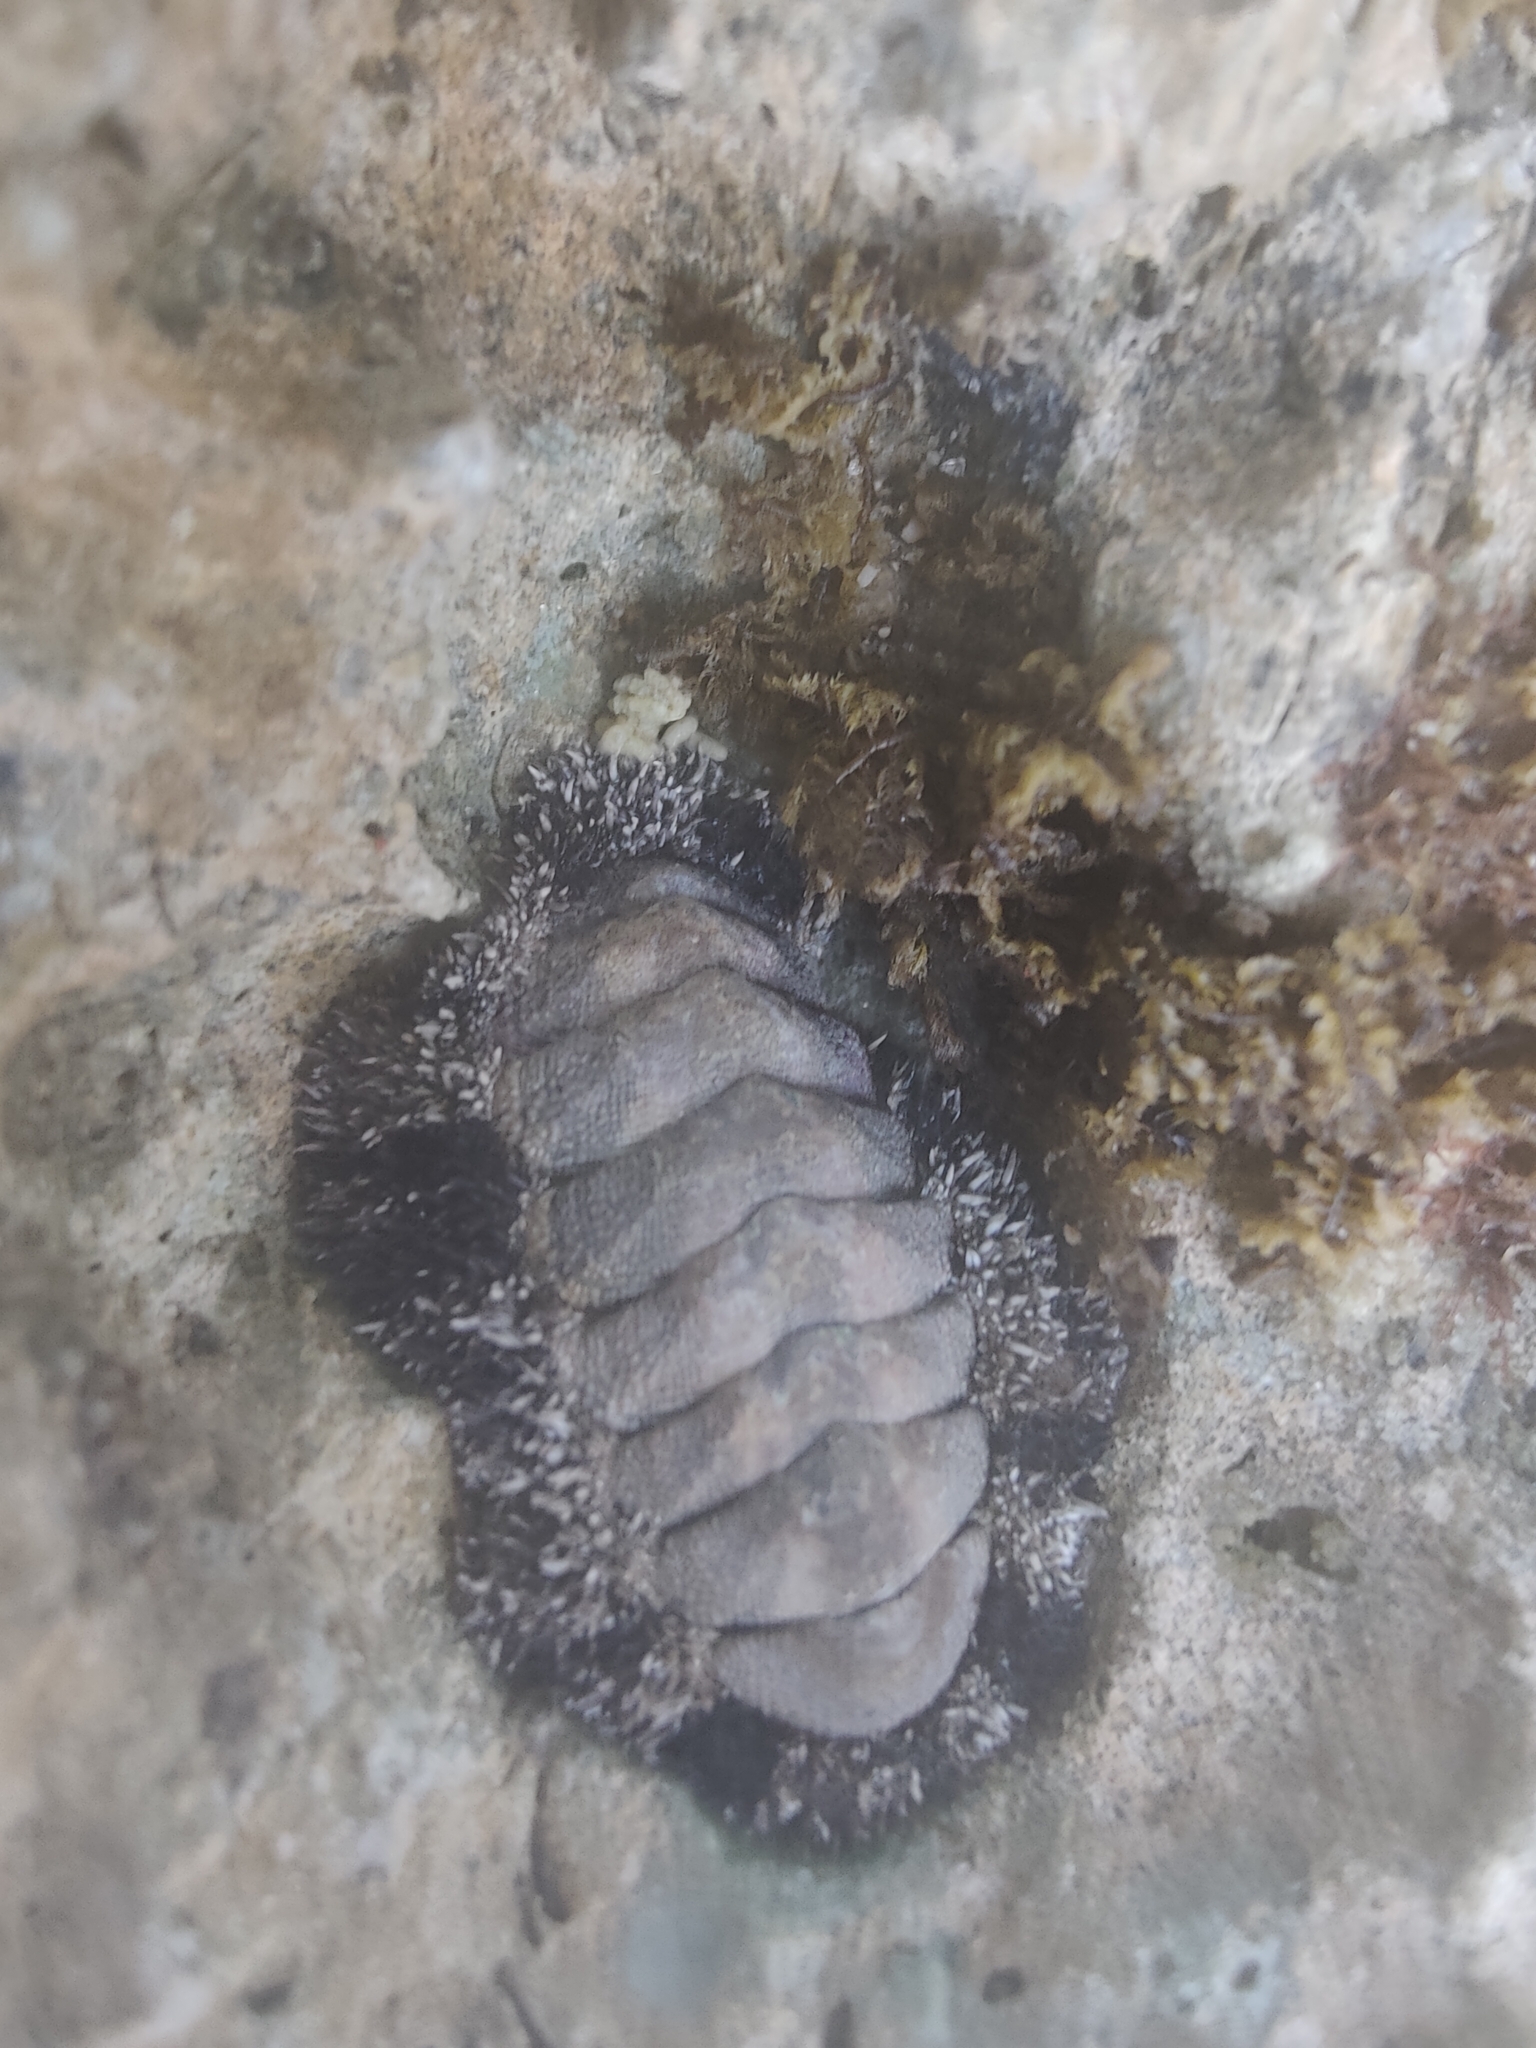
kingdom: Animalia
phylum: Mollusca
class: Polyplacophora
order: Chitonida
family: Chitonidae
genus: Acanthopleura
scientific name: Acanthopleura granulata
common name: West indian fuzzy chiton
